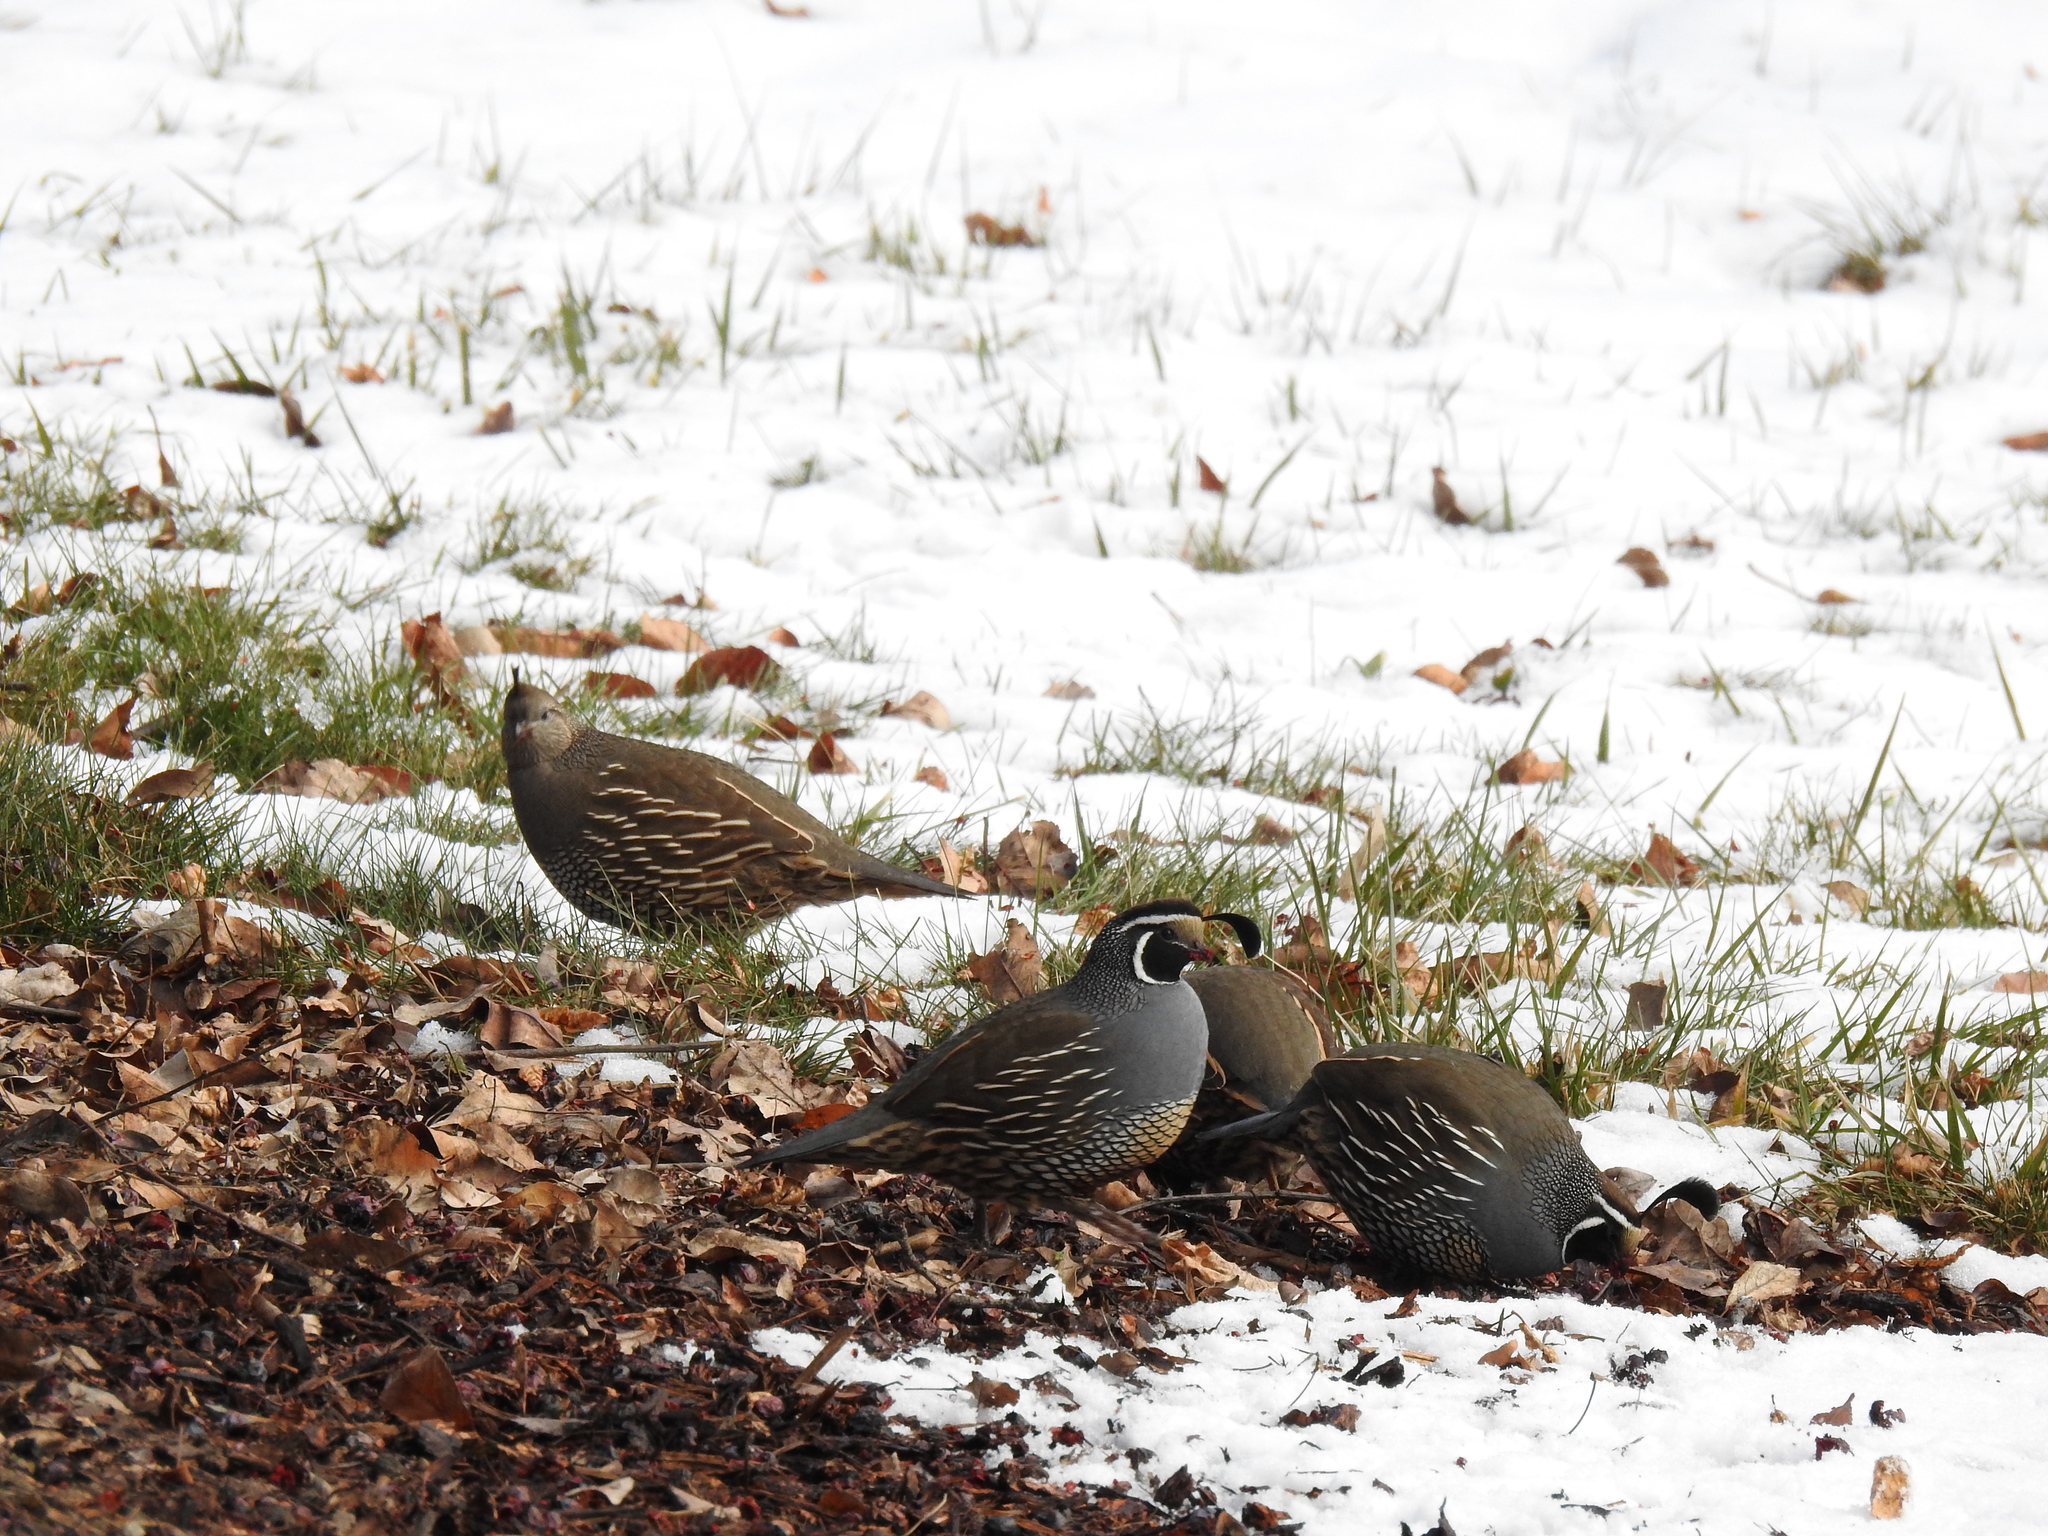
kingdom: Animalia
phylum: Chordata
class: Aves
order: Galliformes
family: Odontophoridae
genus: Callipepla
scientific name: Callipepla californica
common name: California quail
